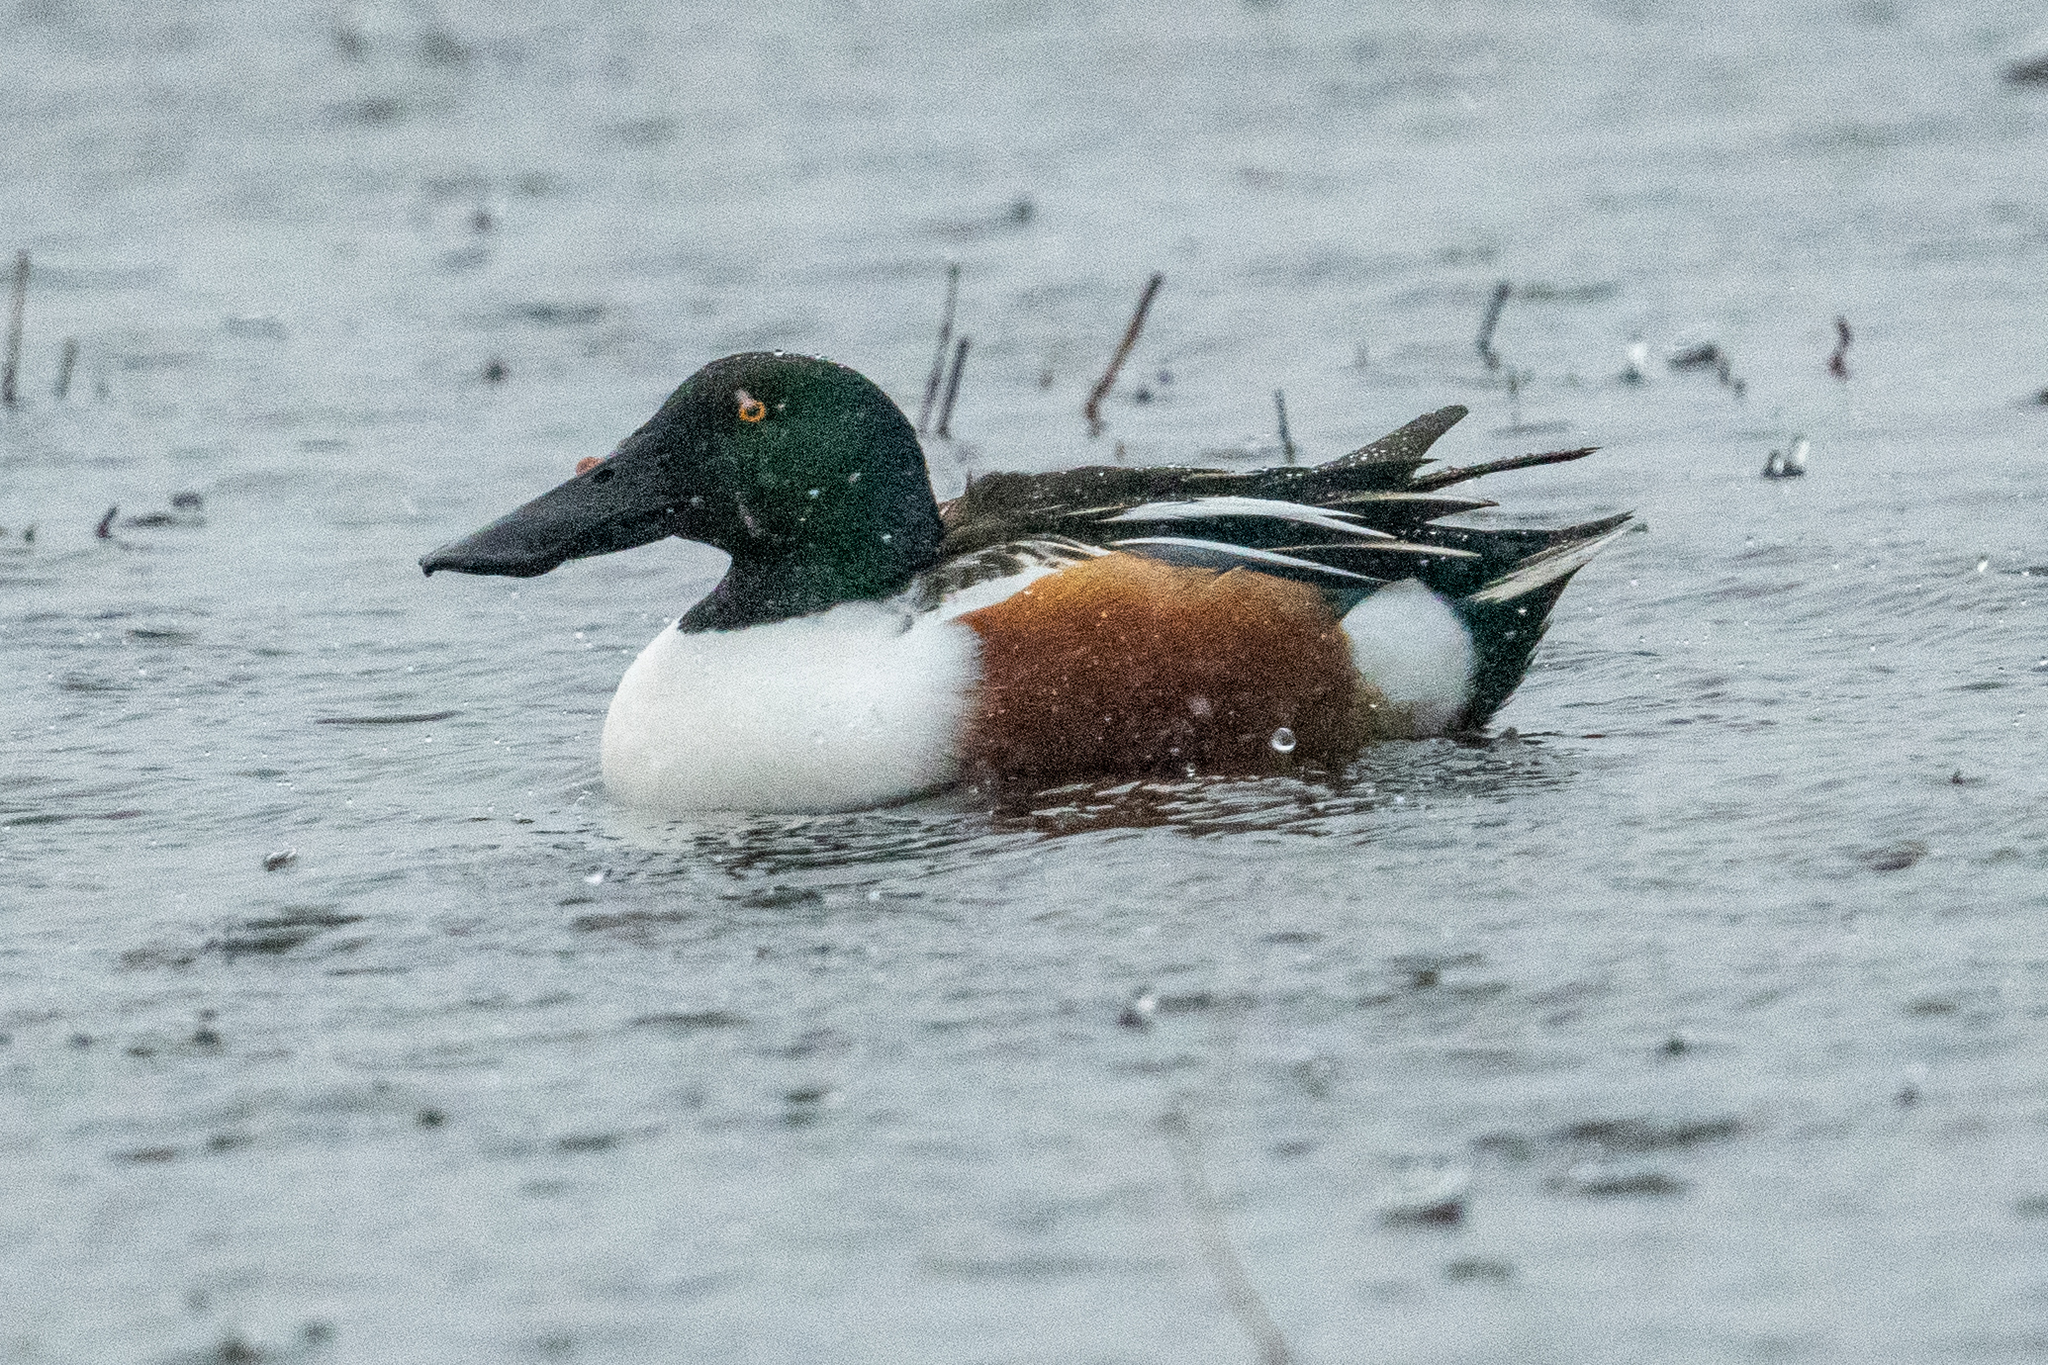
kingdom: Animalia
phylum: Chordata
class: Aves
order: Anseriformes
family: Anatidae
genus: Spatula
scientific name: Spatula clypeata
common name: Northern shoveler
